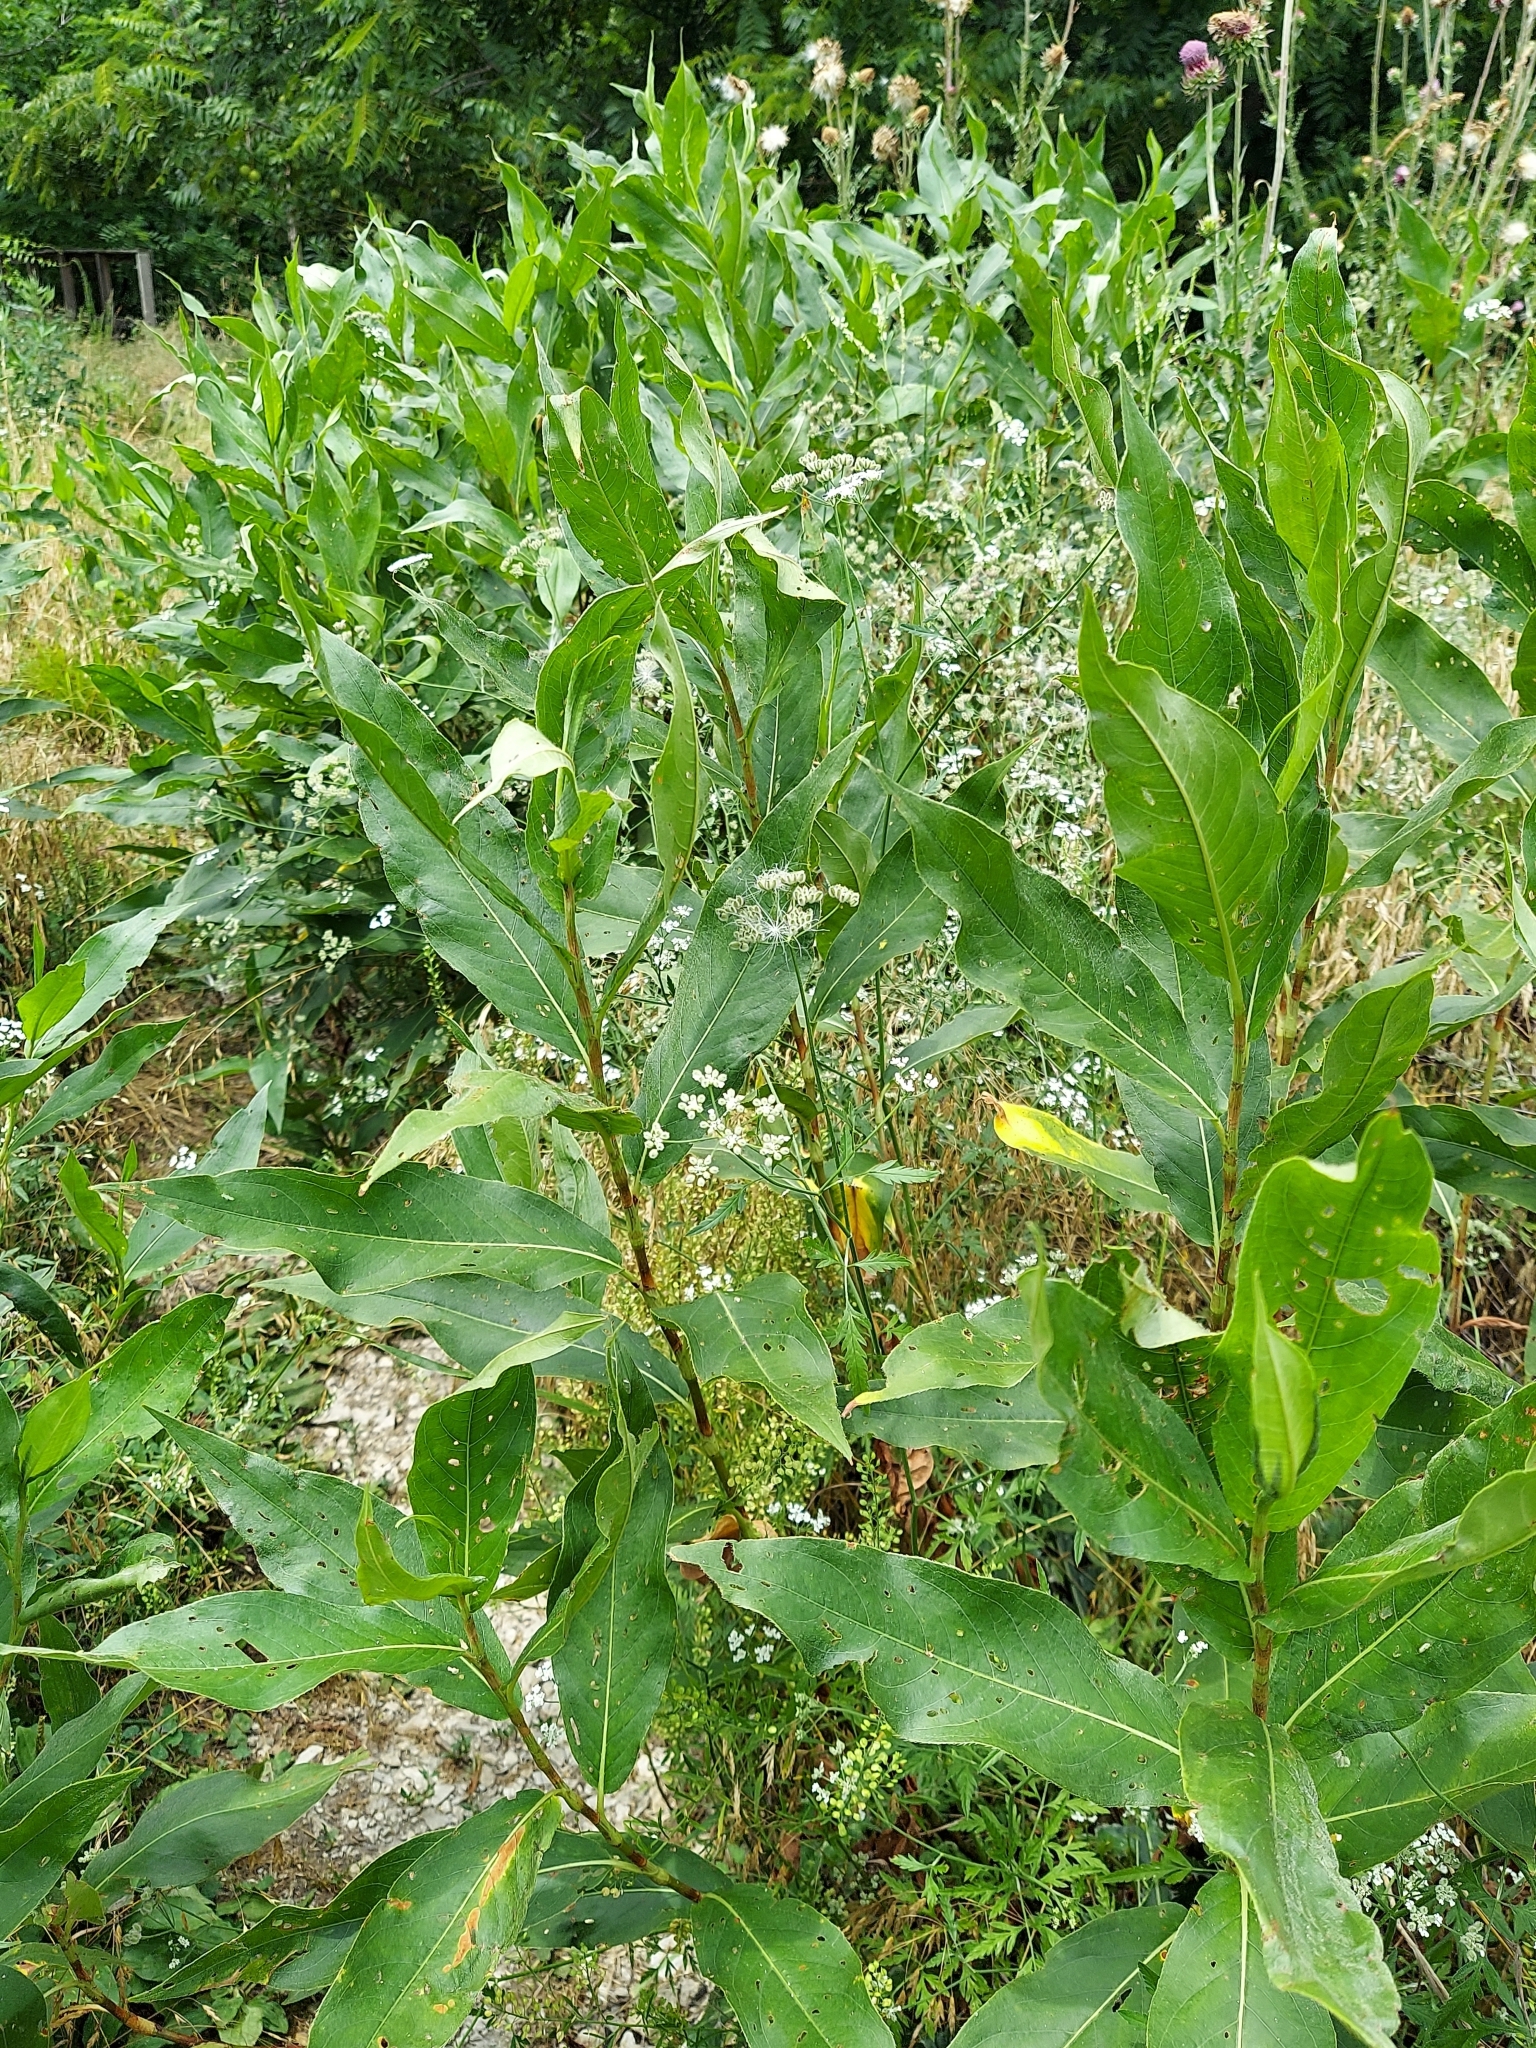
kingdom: Plantae
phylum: Tracheophyta
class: Magnoliopsida
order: Caryophyllales
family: Polygonaceae
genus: Persicaria
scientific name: Persicaria amphibia
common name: Amphibious bistort
